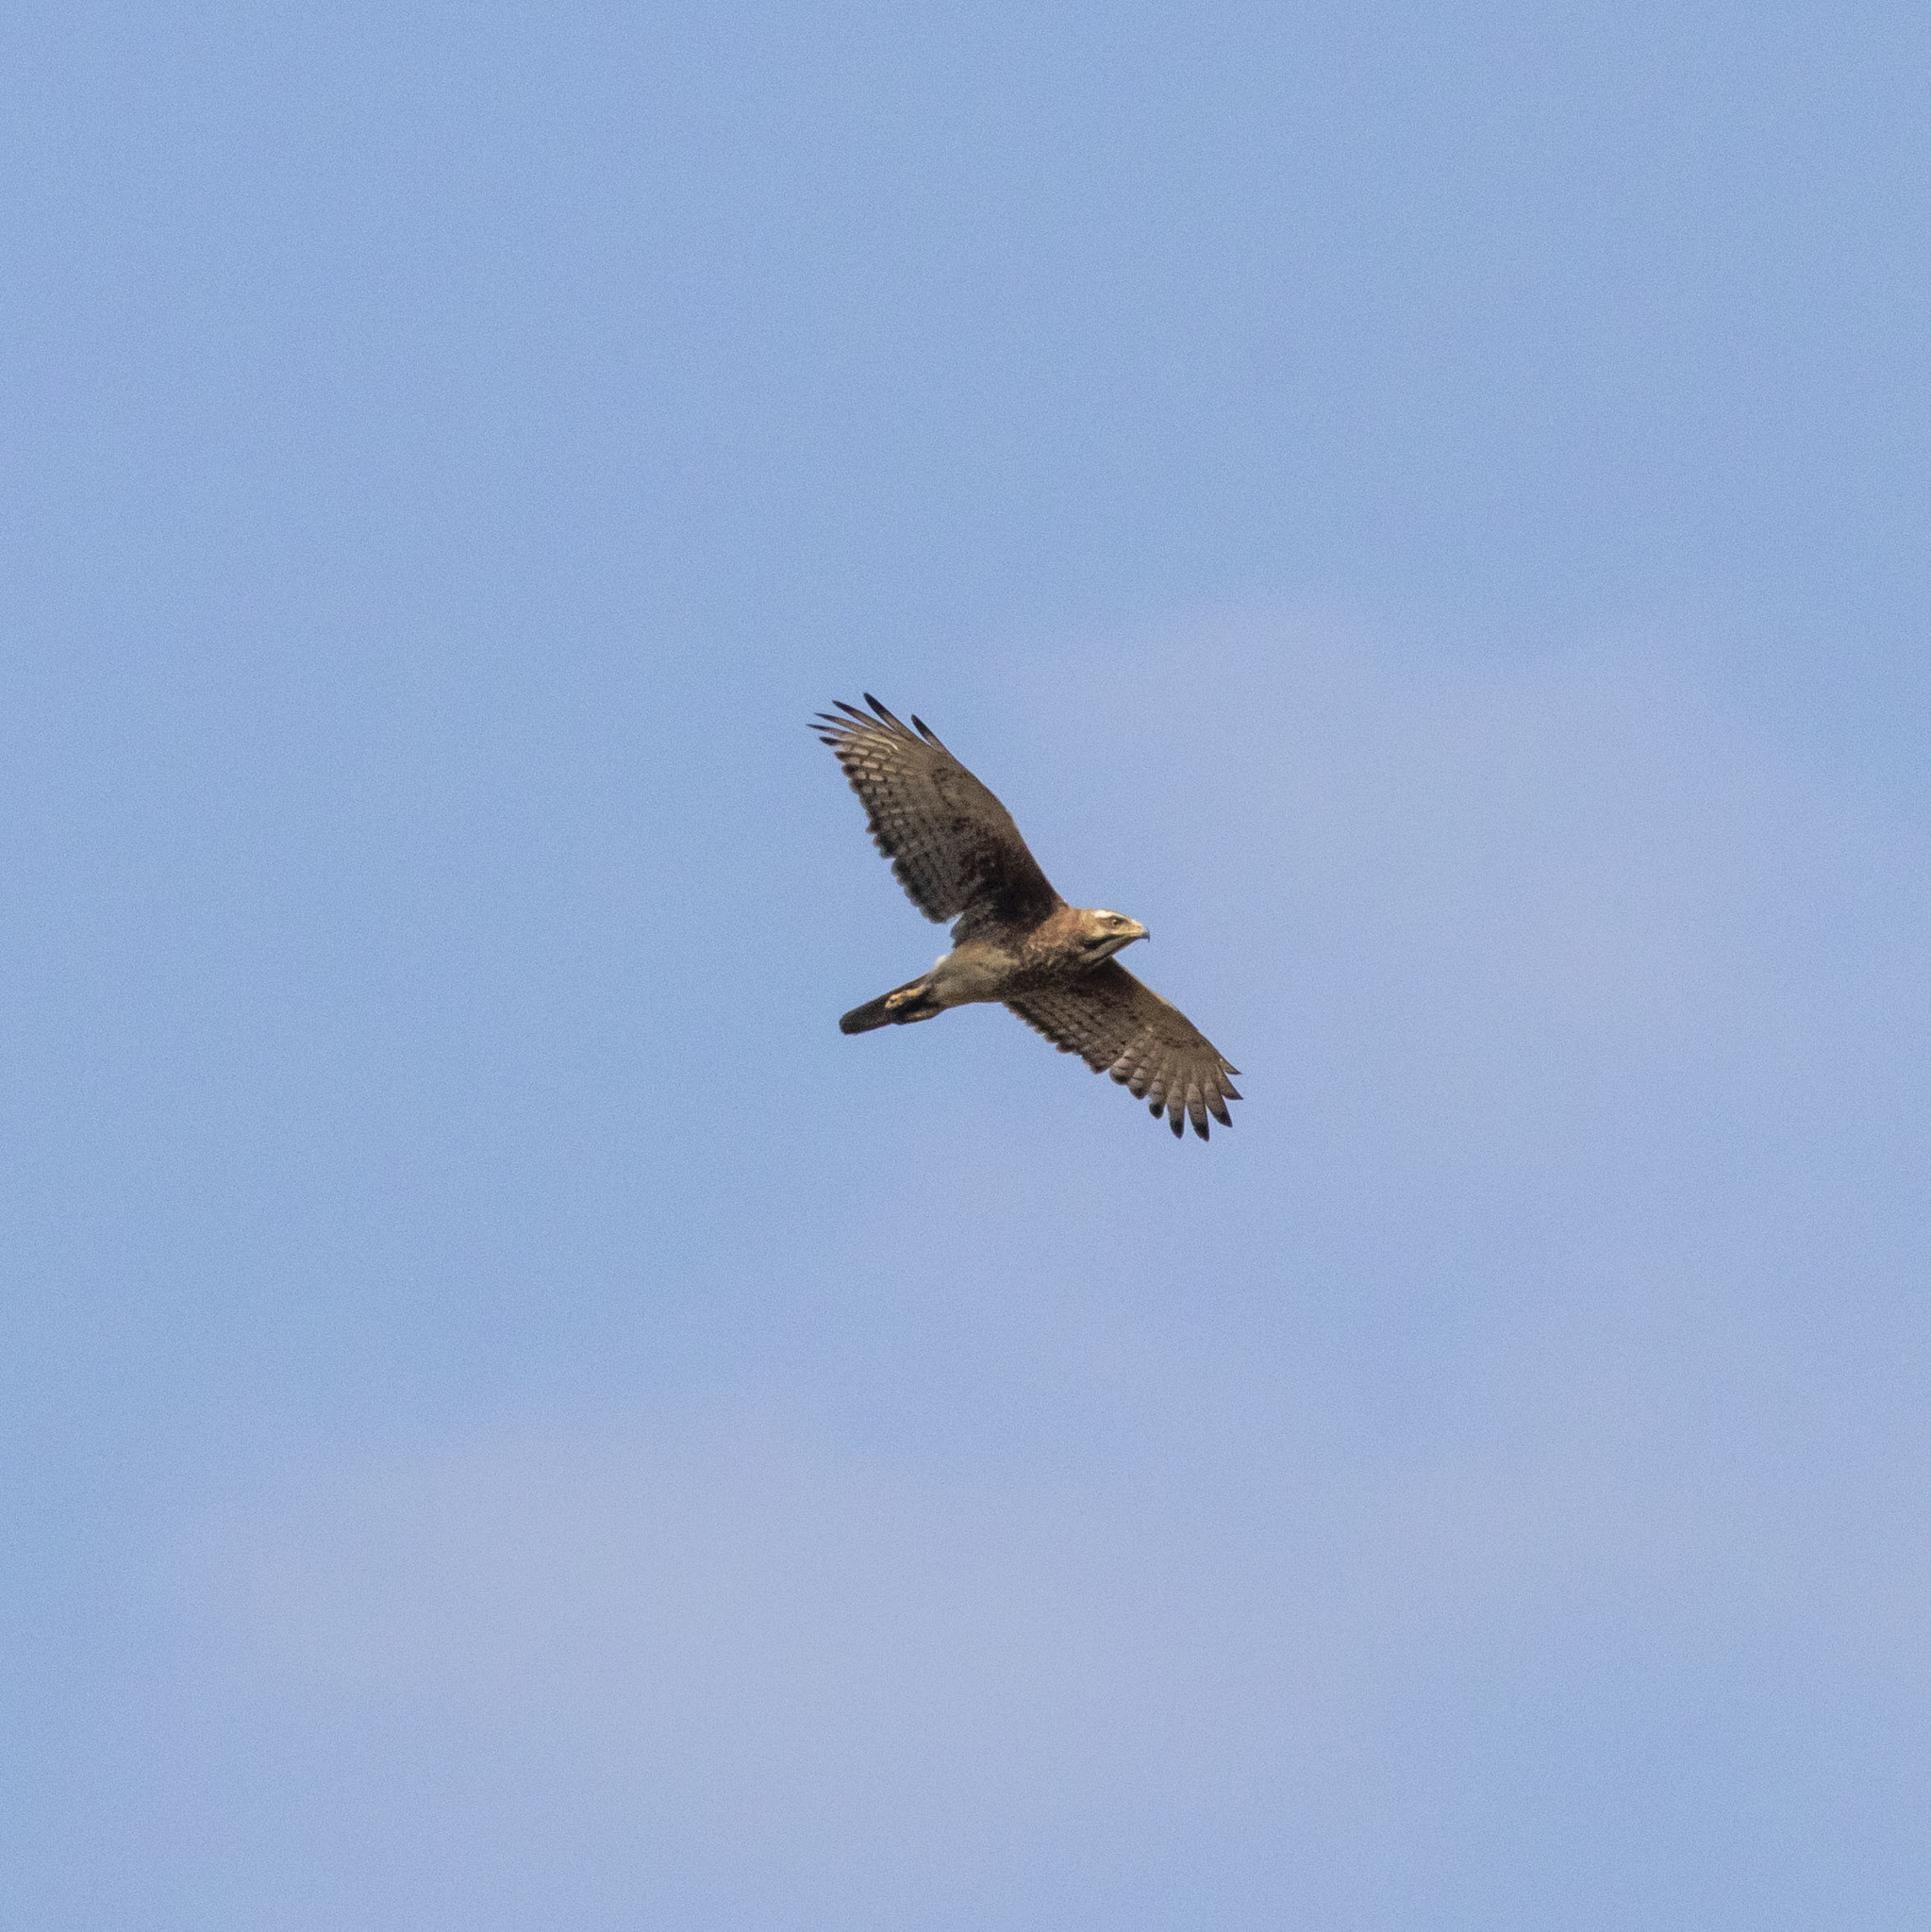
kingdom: Animalia
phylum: Chordata
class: Aves
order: Accipitriformes
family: Accipitridae
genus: Butastur
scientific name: Butastur teesa
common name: White-eyed buzzard
